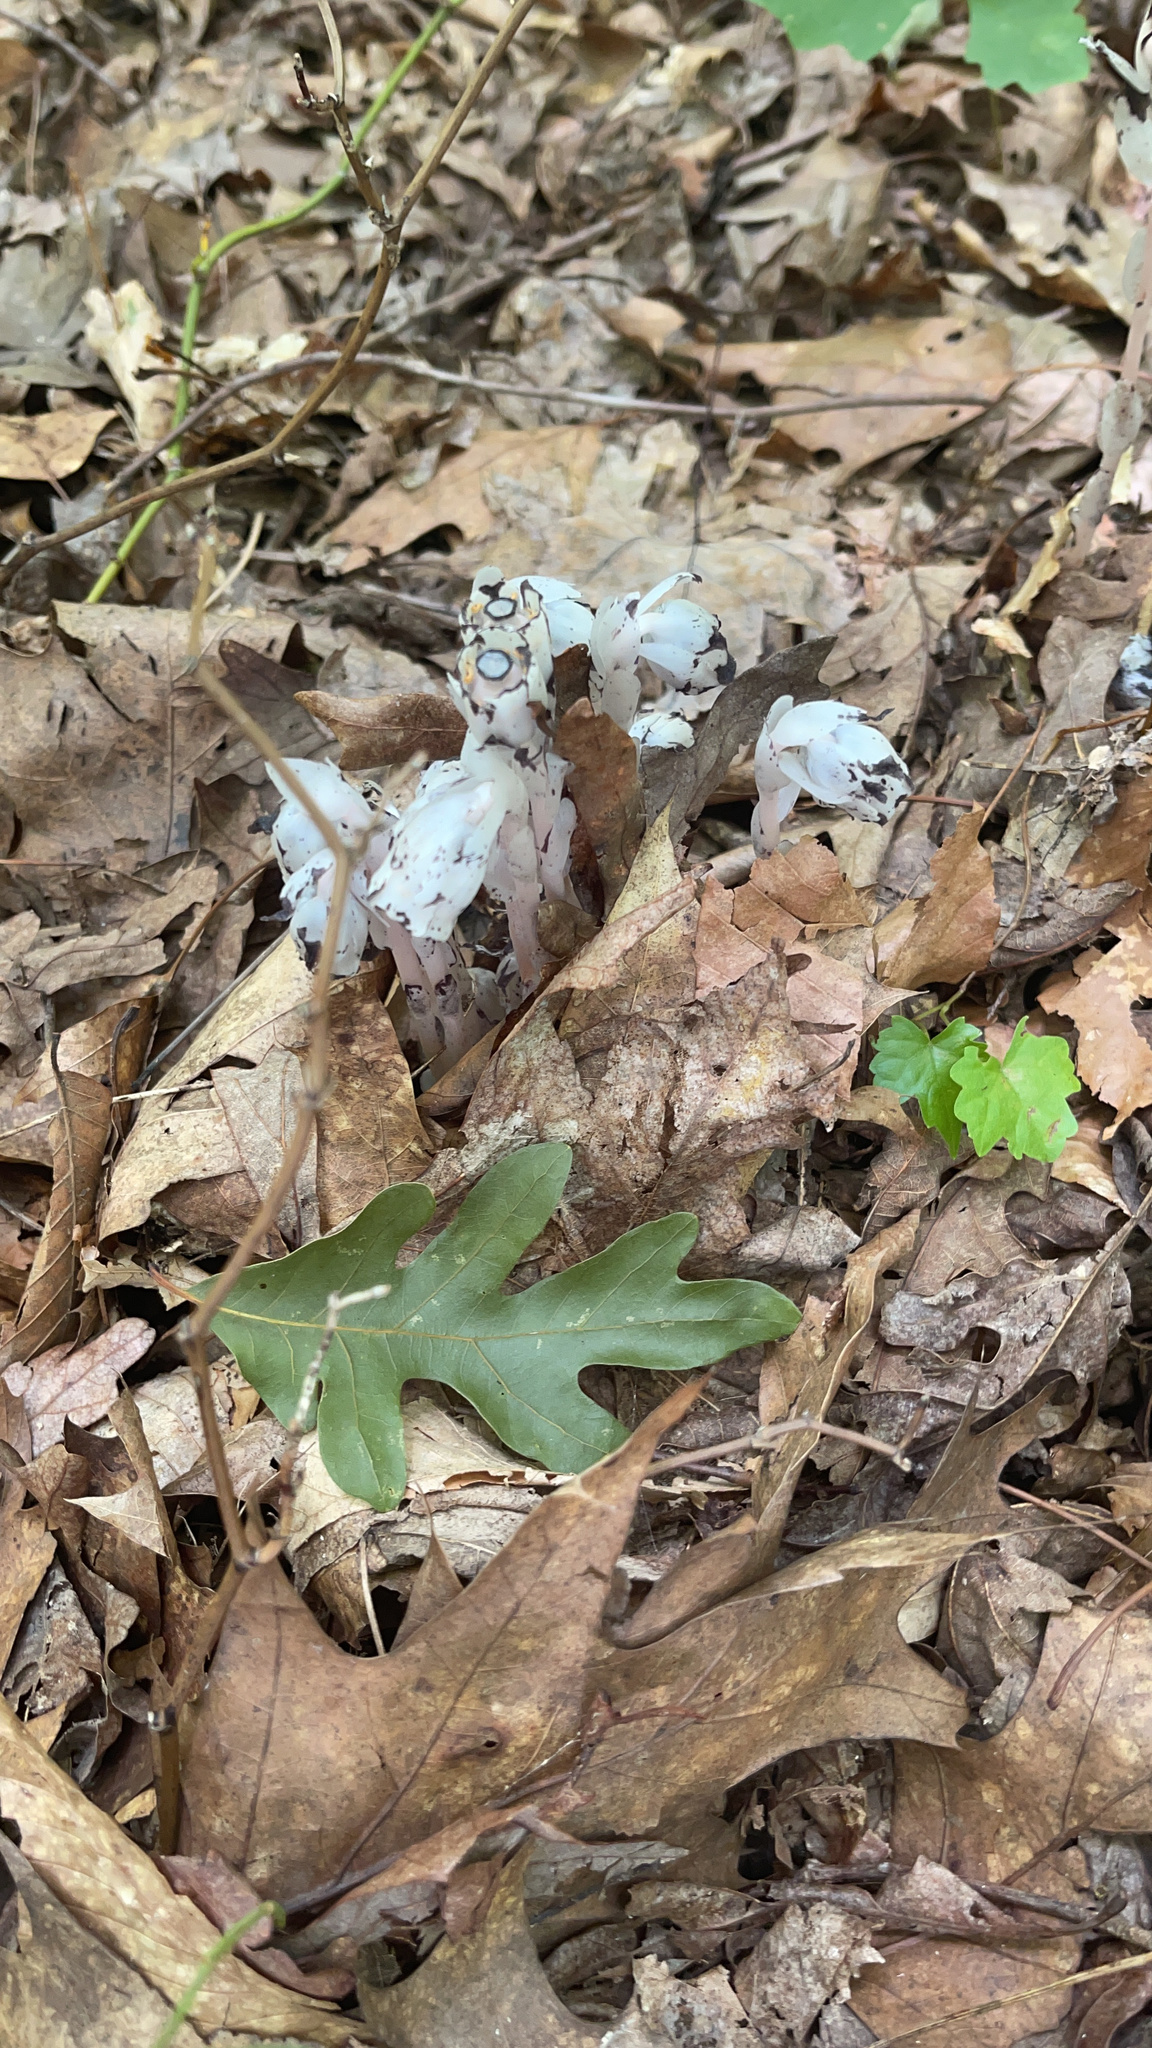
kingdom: Plantae
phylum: Tracheophyta
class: Magnoliopsida
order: Ericales
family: Ericaceae
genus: Monotropa
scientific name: Monotropa uniflora
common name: Convulsion root
